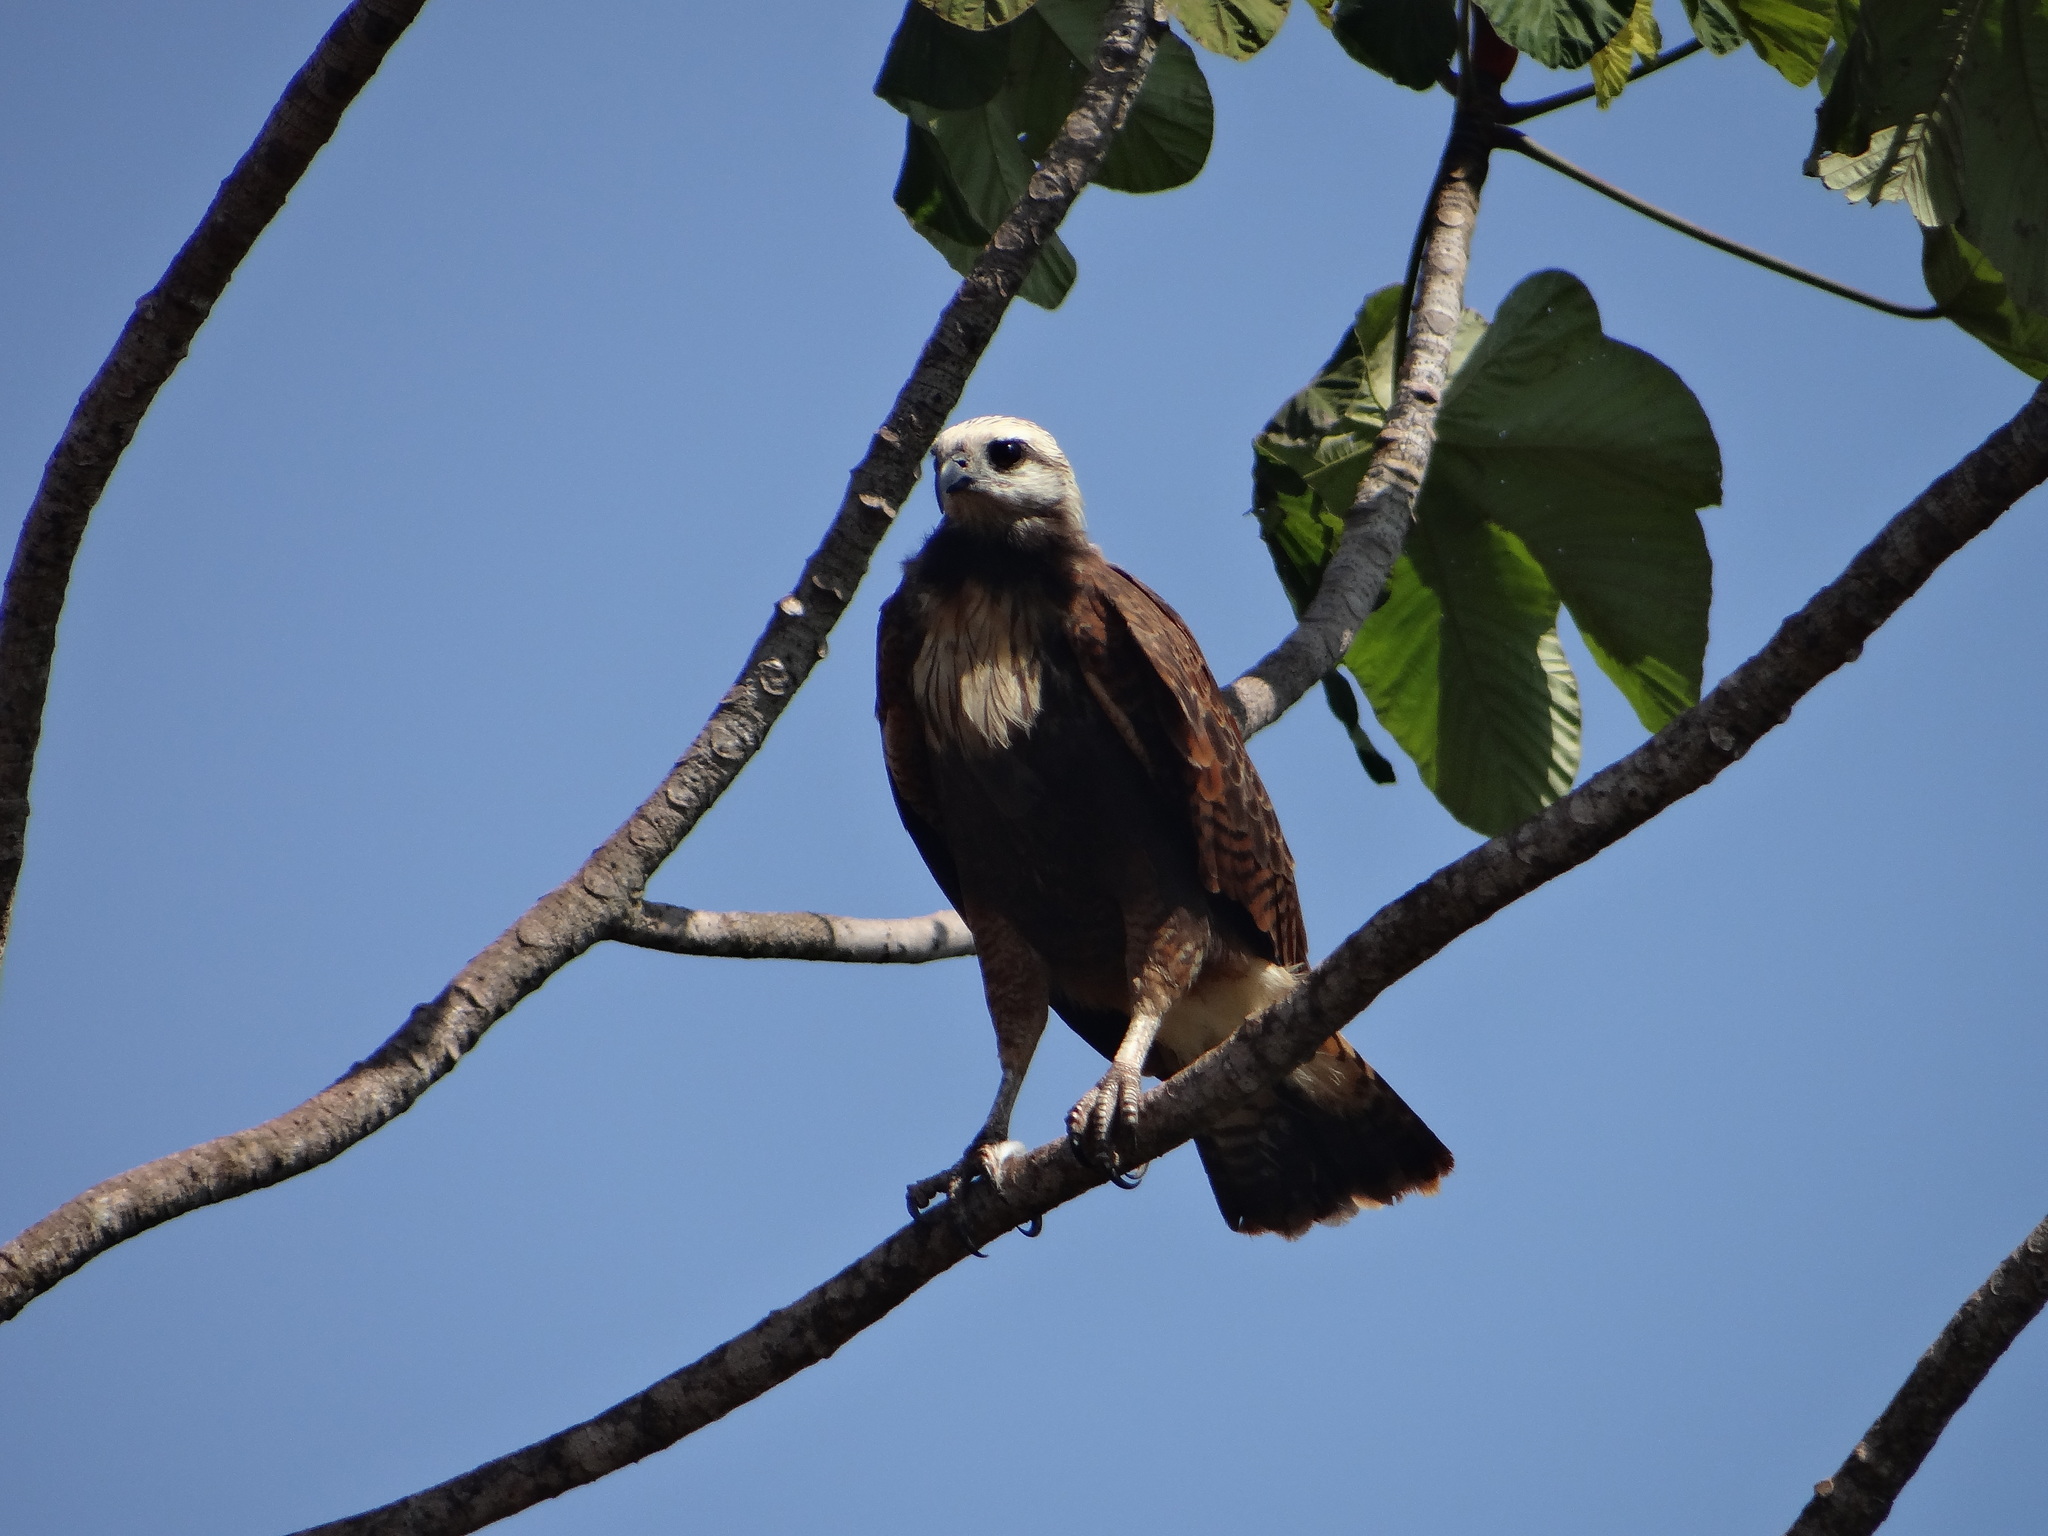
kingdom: Animalia
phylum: Chordata
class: Aves
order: Accipitriformes
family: Accipitridae
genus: Busarellus
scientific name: Busarellus nigricollis
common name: Black-collared hawk
